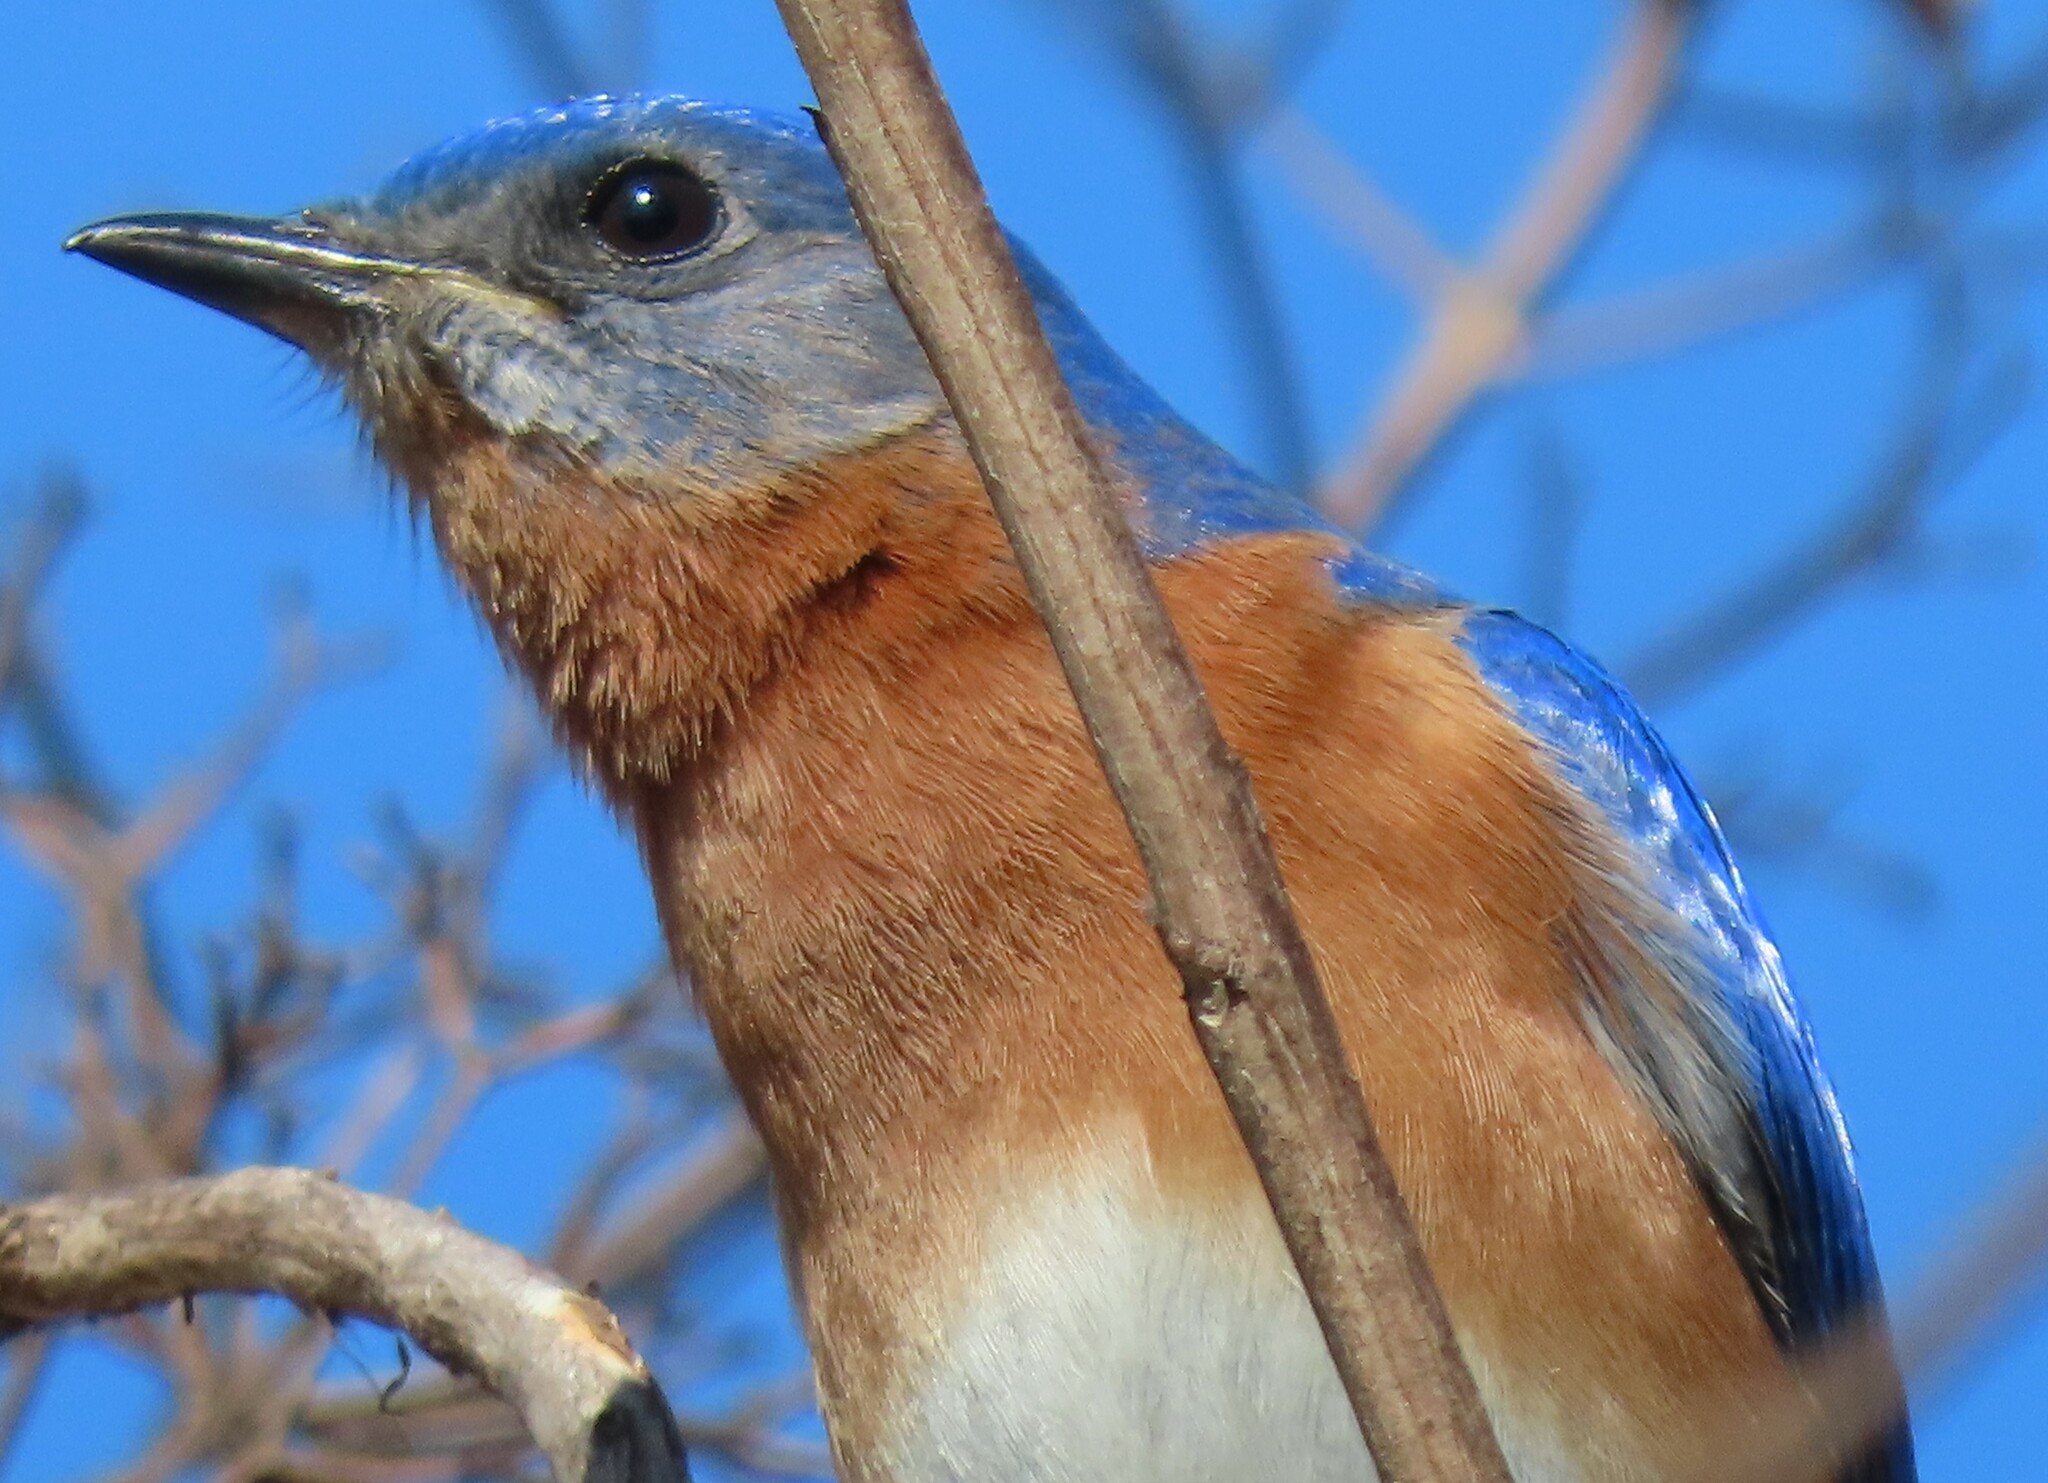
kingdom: Animalia
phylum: Chordata
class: Aves
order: Passeriformes
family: Turdidae
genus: Sialia
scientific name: Sialia sialis
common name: Eastern bluebird
